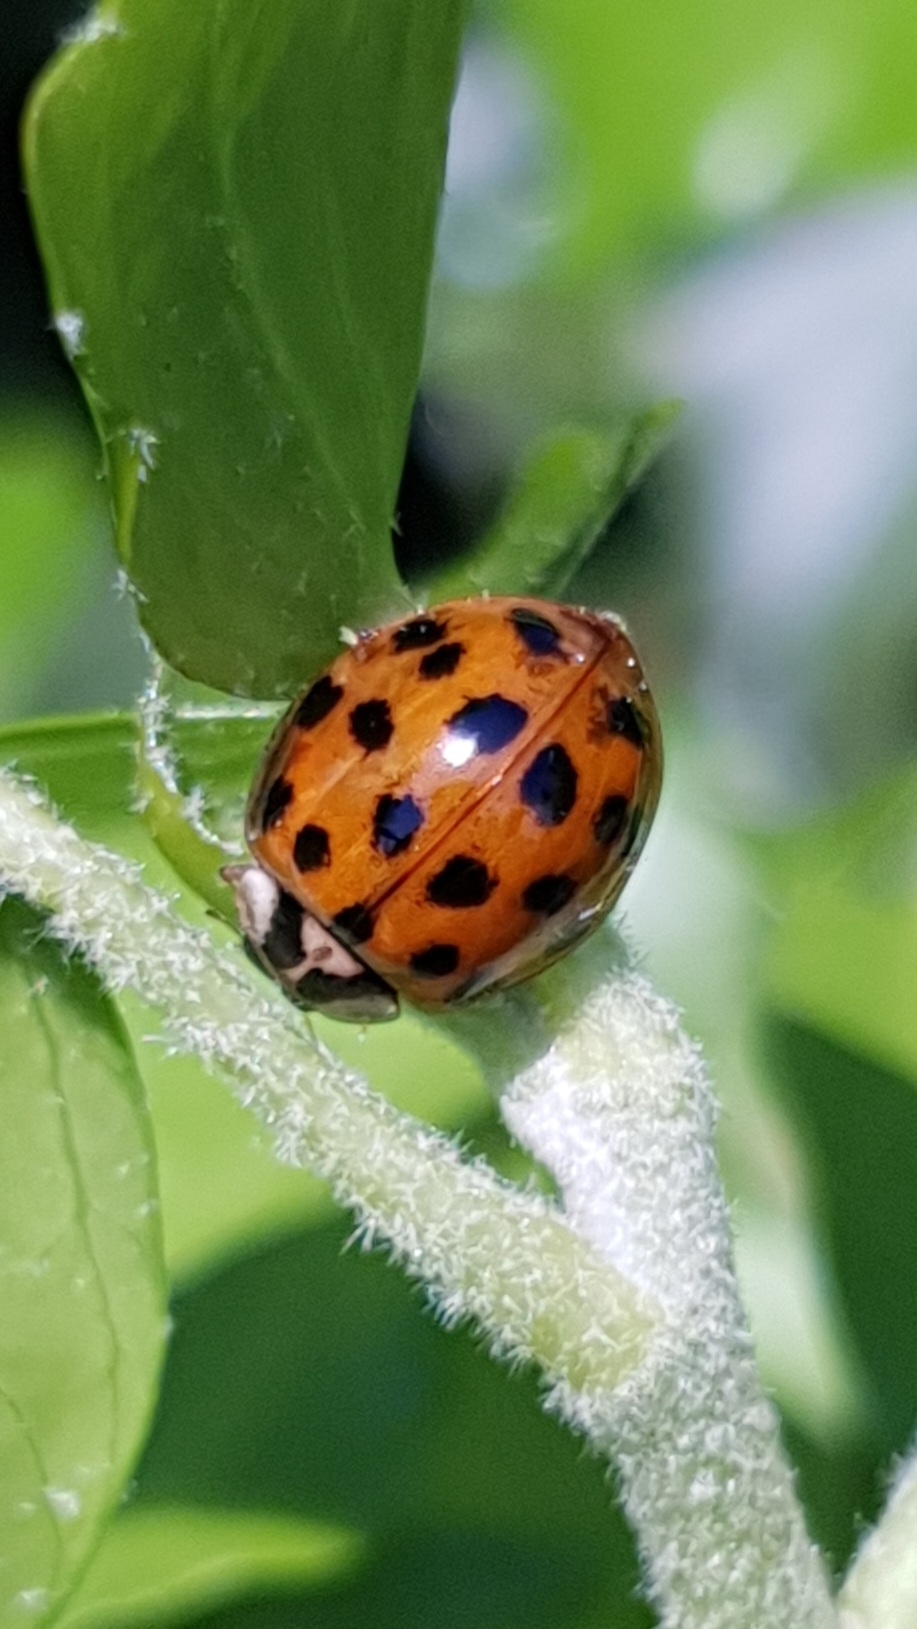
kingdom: Animalia
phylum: Arthropoda
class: Insecta
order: Coleoptera
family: Coccinellidae
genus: Harmonia
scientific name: Harmonia axyridis
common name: Harlequin ladybird
